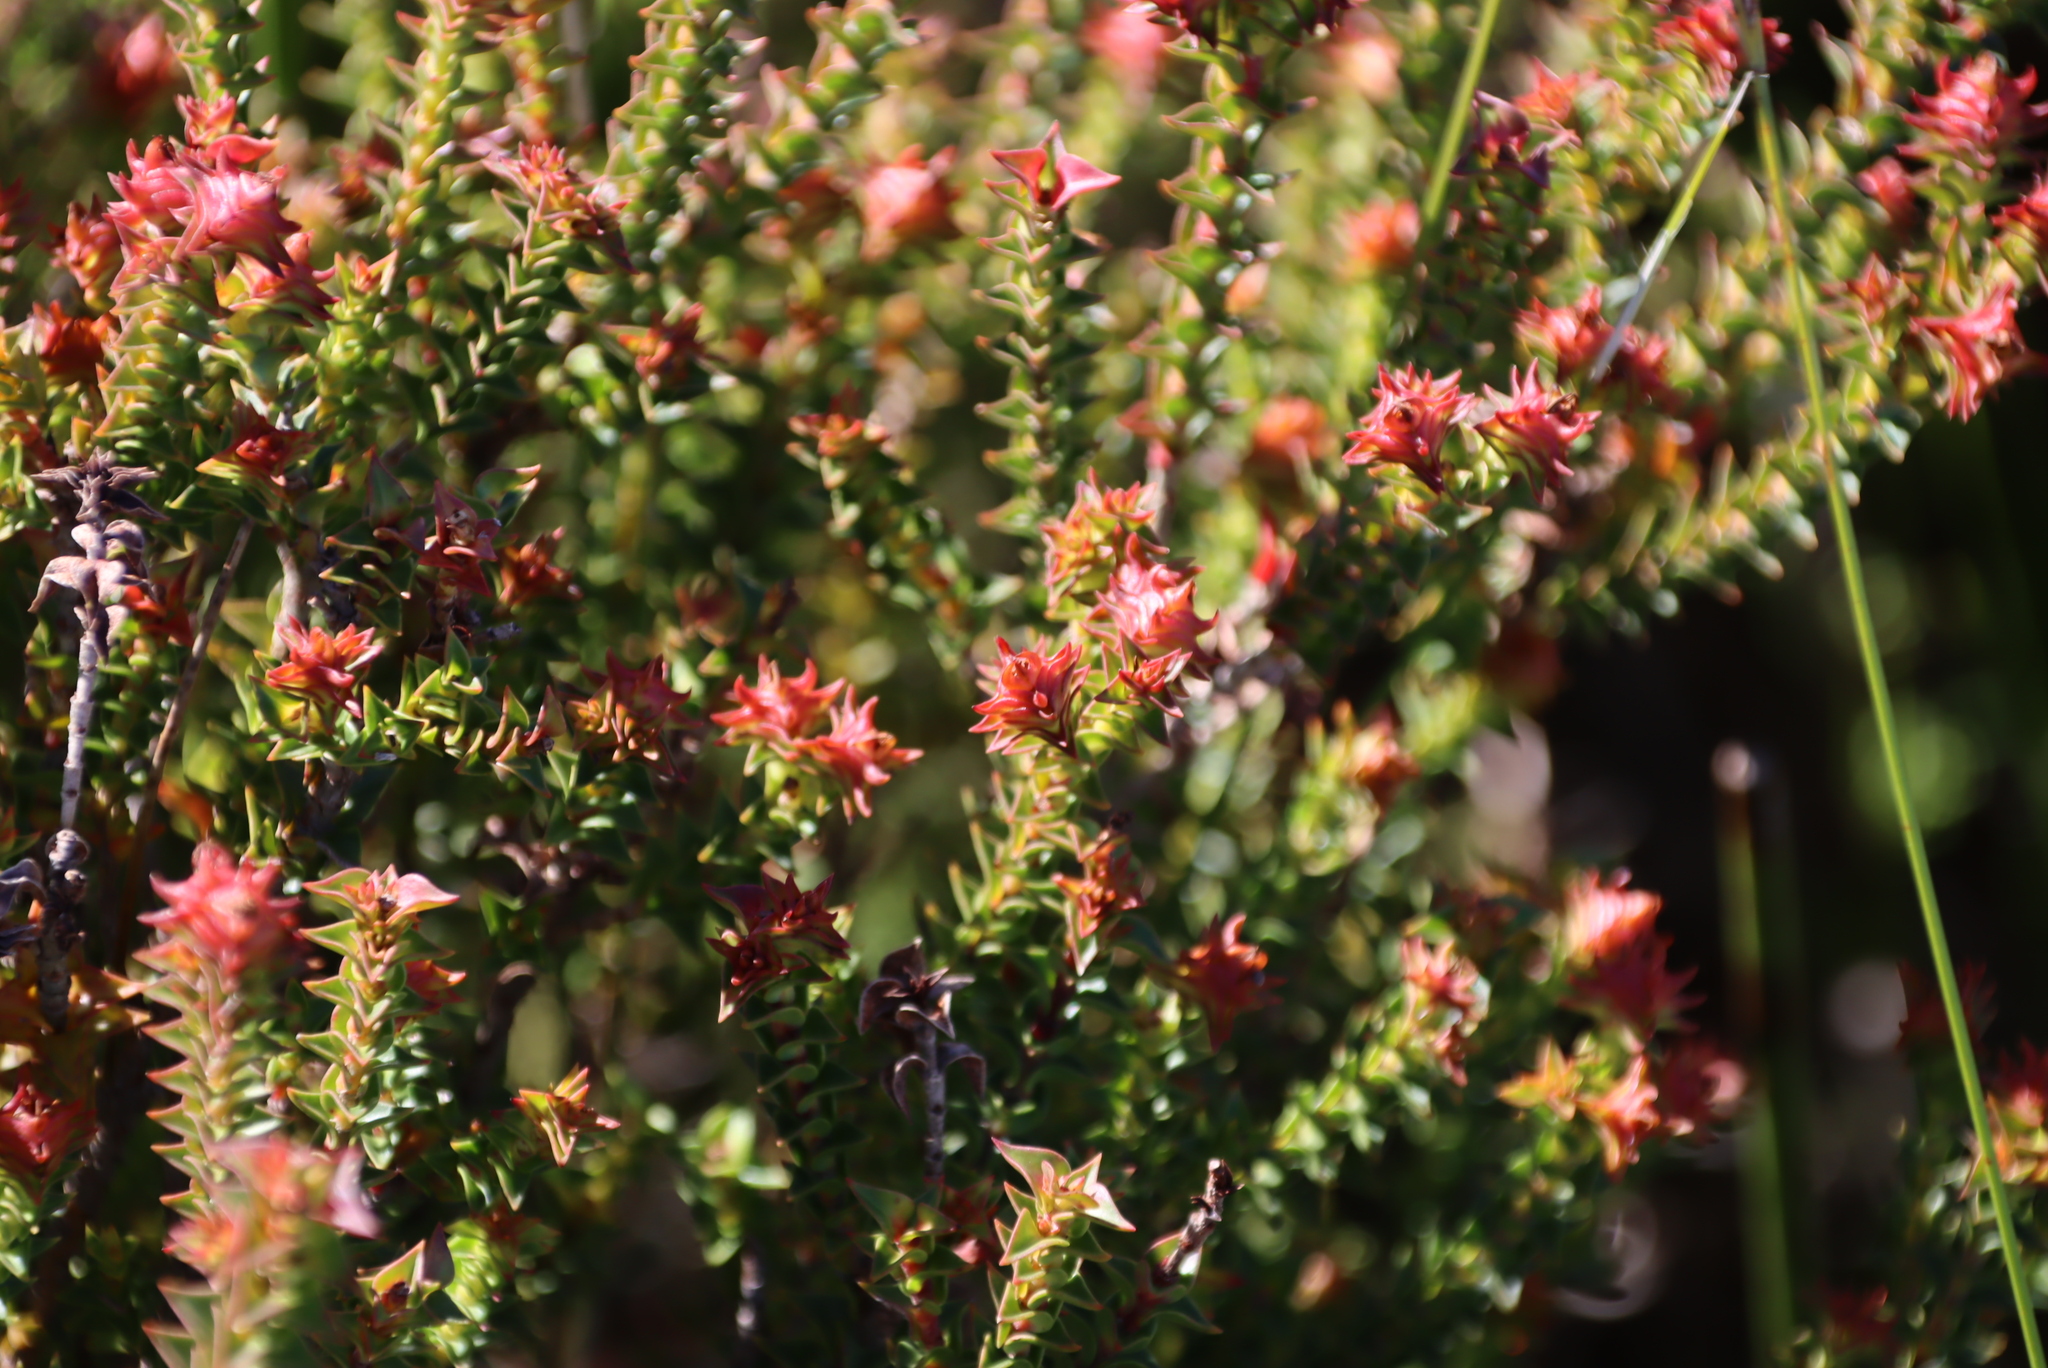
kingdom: Plantae
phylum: Tracheophyta
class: Magnoliopsida
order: Myrtales
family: Penaeaceae
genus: Penaea
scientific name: Penaea mucronata
